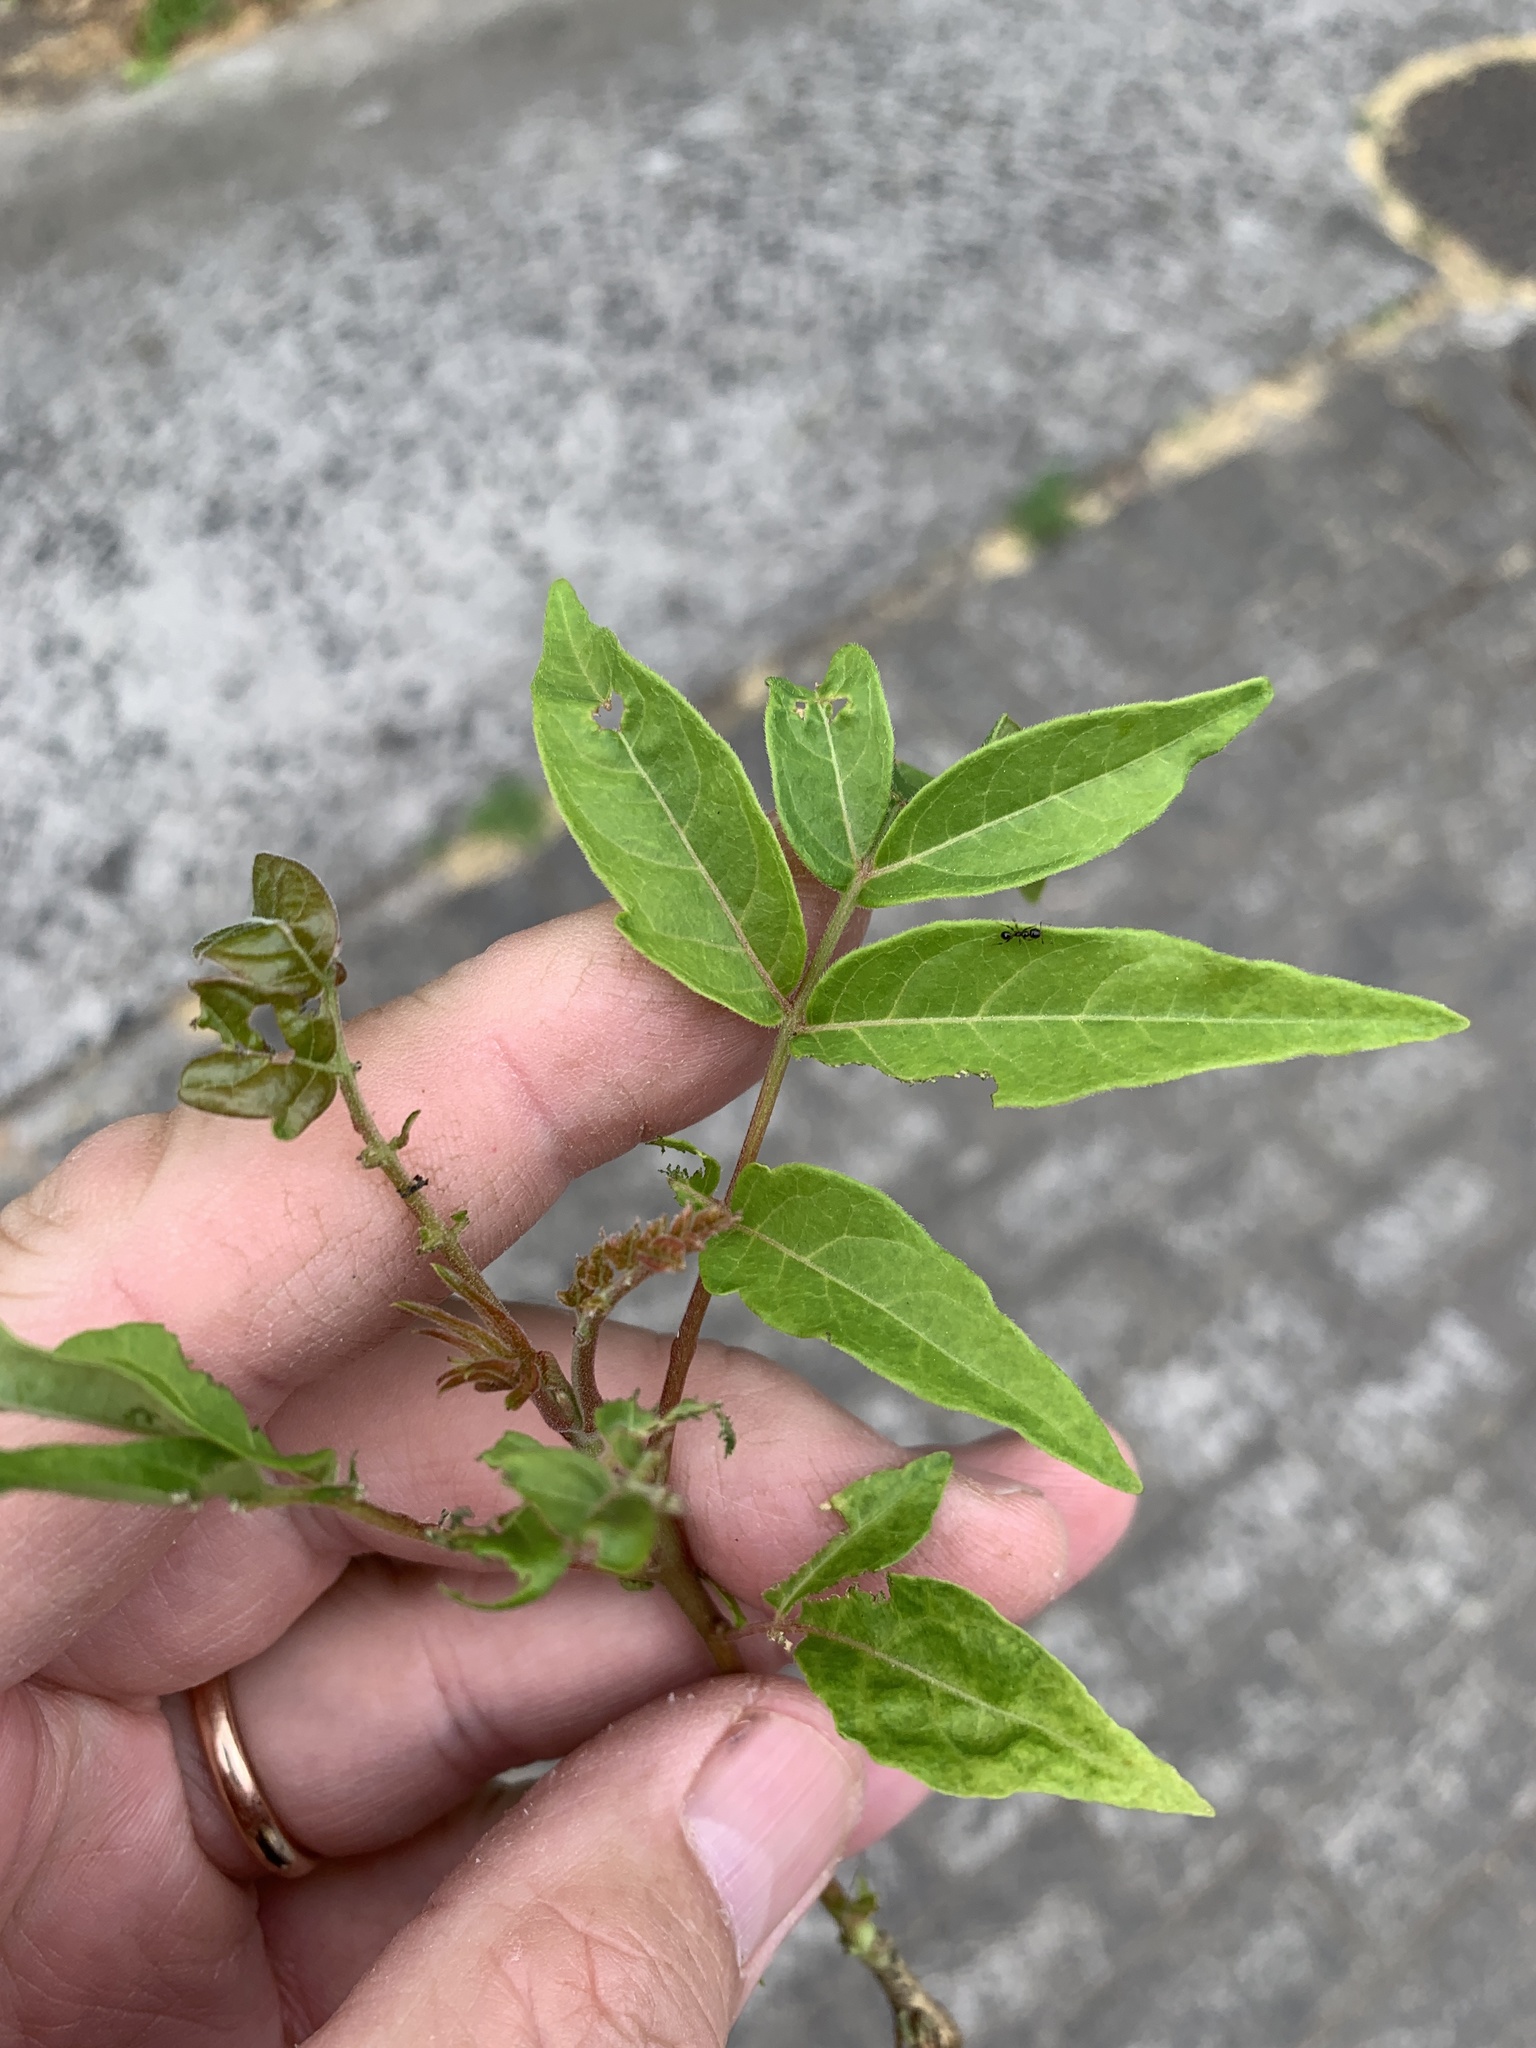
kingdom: Plantae
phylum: Tracheophyta
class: Magnoliopsida
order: Sapindales
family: Simaroubaceae
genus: Ailanthus
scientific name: Ailanthus altissima
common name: Tree-of-heaven
